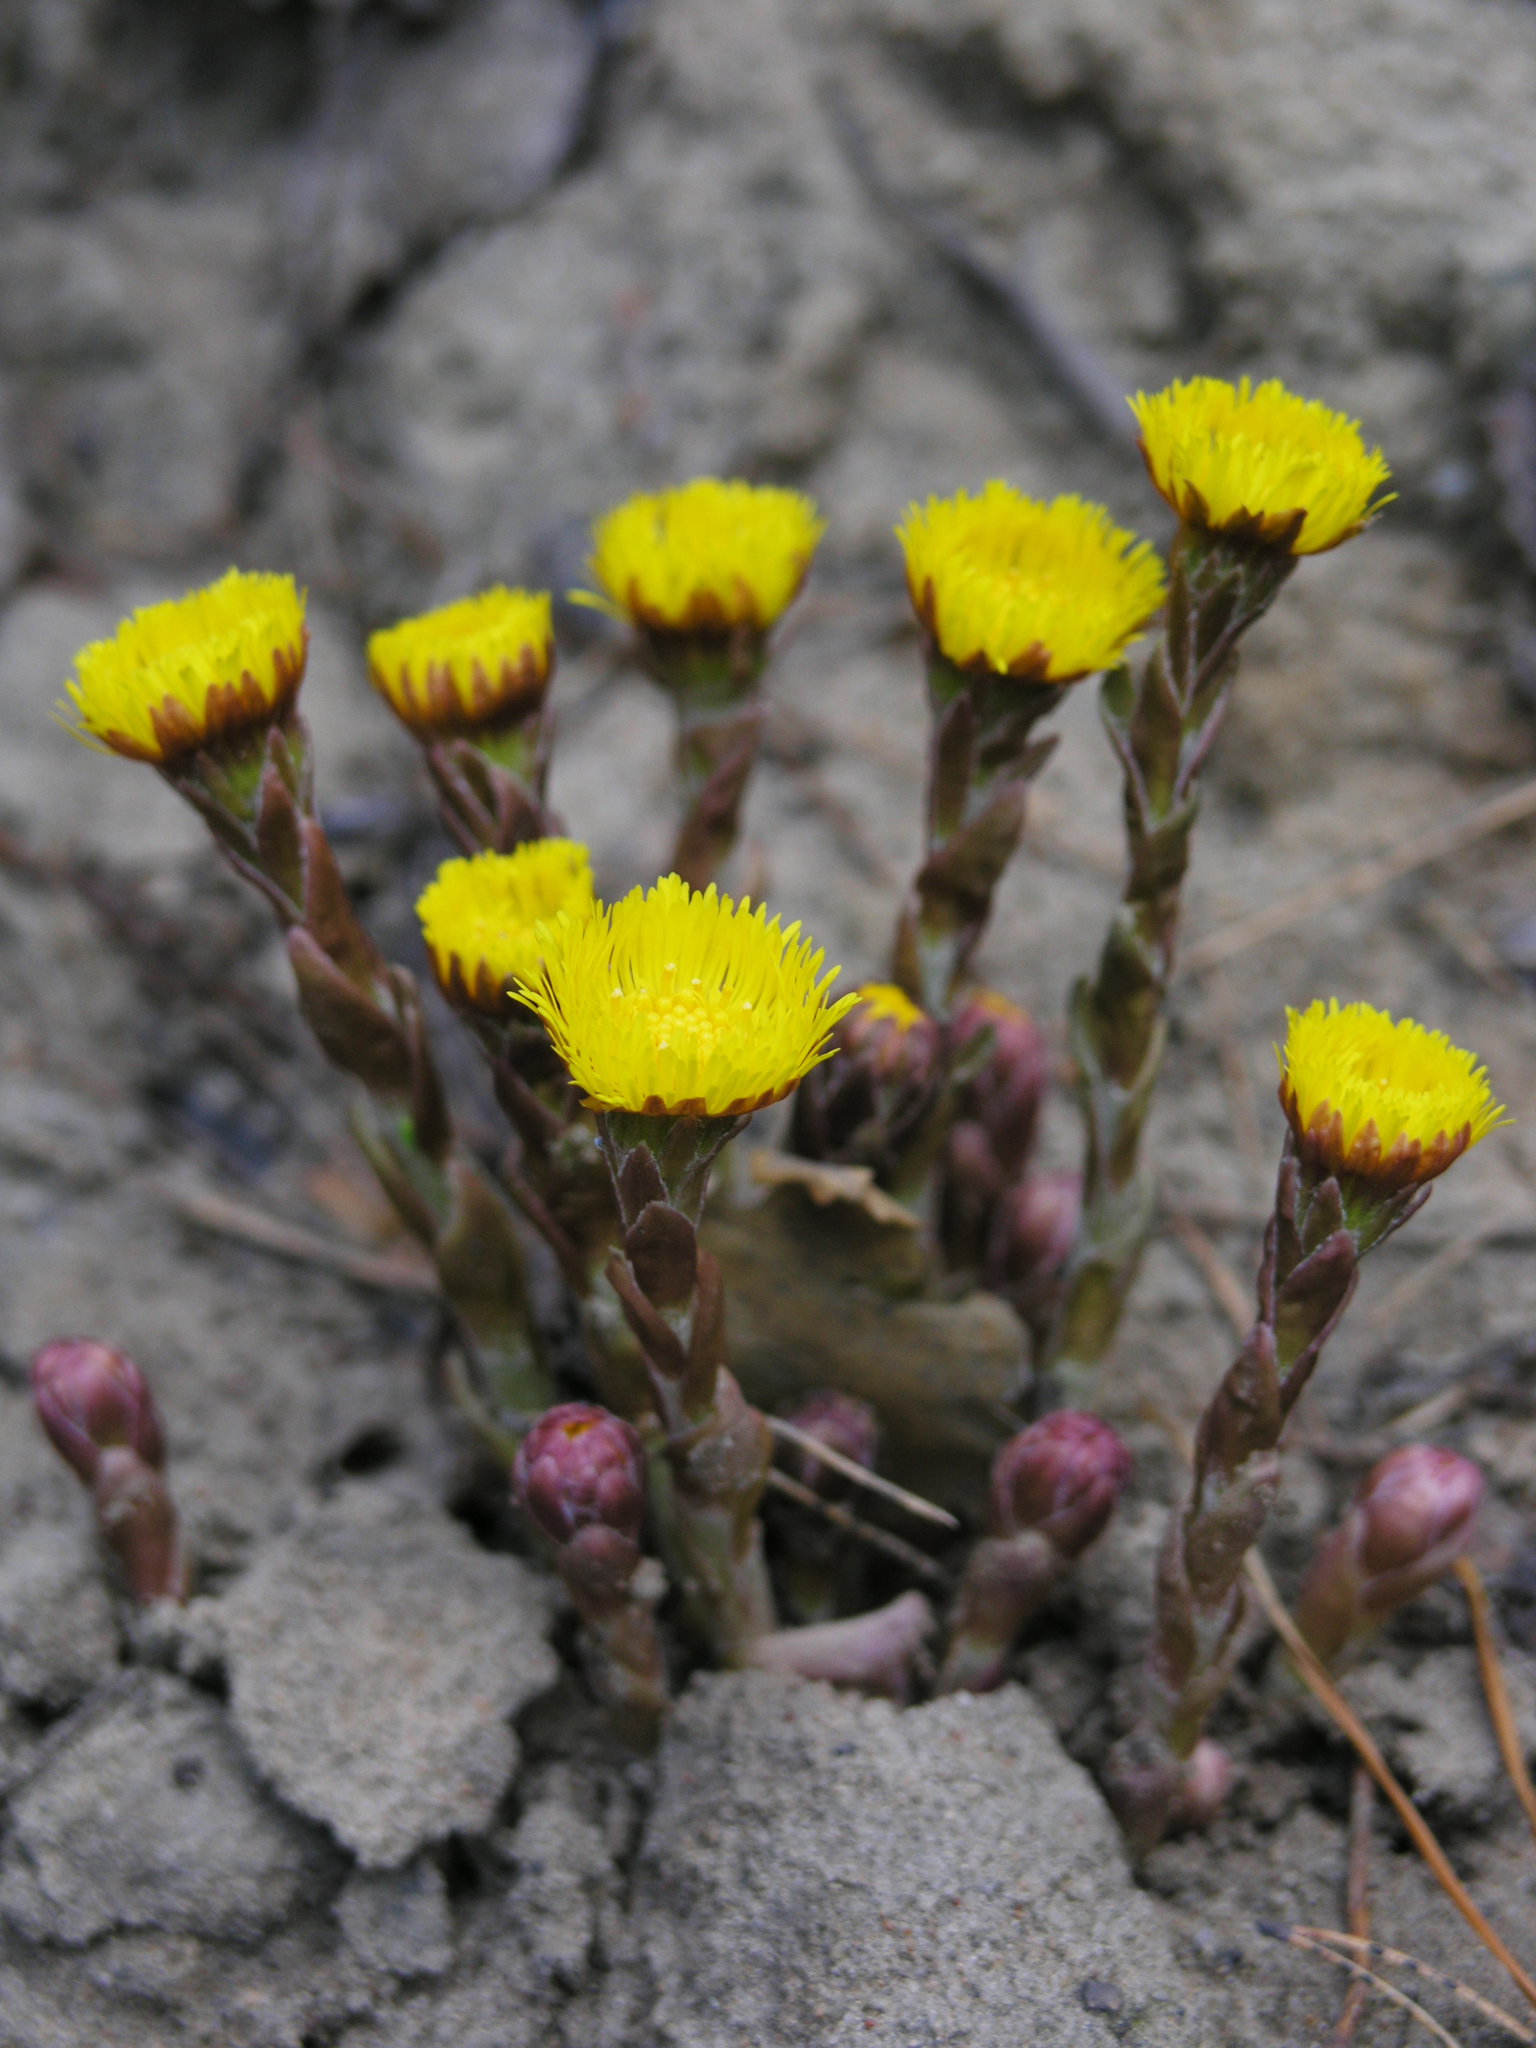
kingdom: Plantae
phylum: Tracheophyta
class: Magnoliopsida
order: Asterales
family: Asteraceae
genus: Tussilago
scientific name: Tussilago farfara
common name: Coltsfoot
